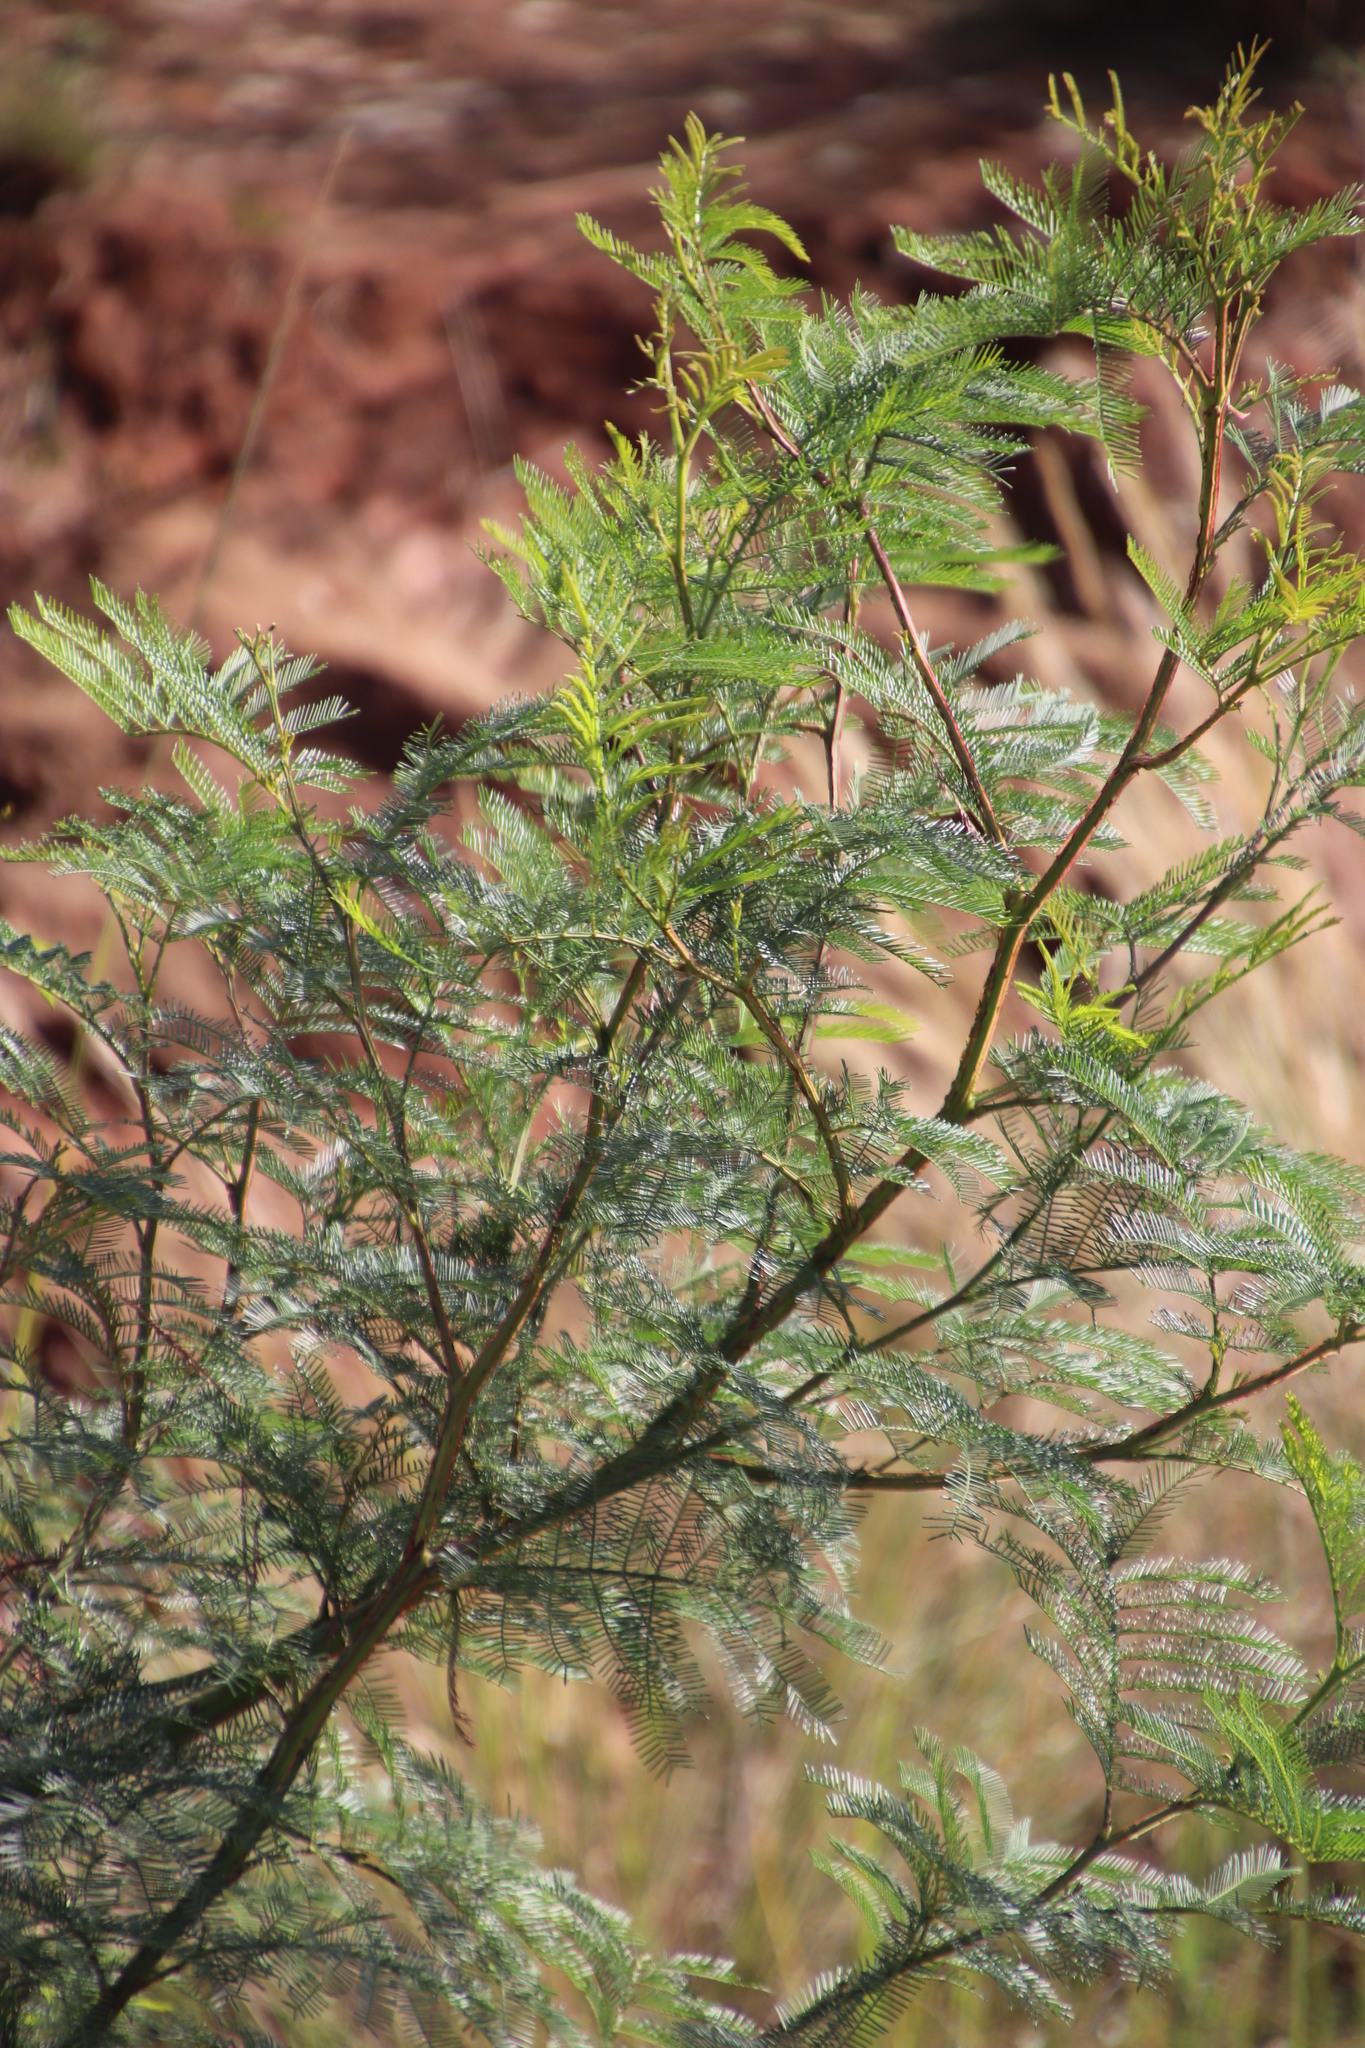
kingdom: Plantae
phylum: Tracheophyta
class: Magnoliopsida
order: Fabales
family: Fabaceae
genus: Acacia
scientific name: Acacia decurrens
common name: Green wattle
